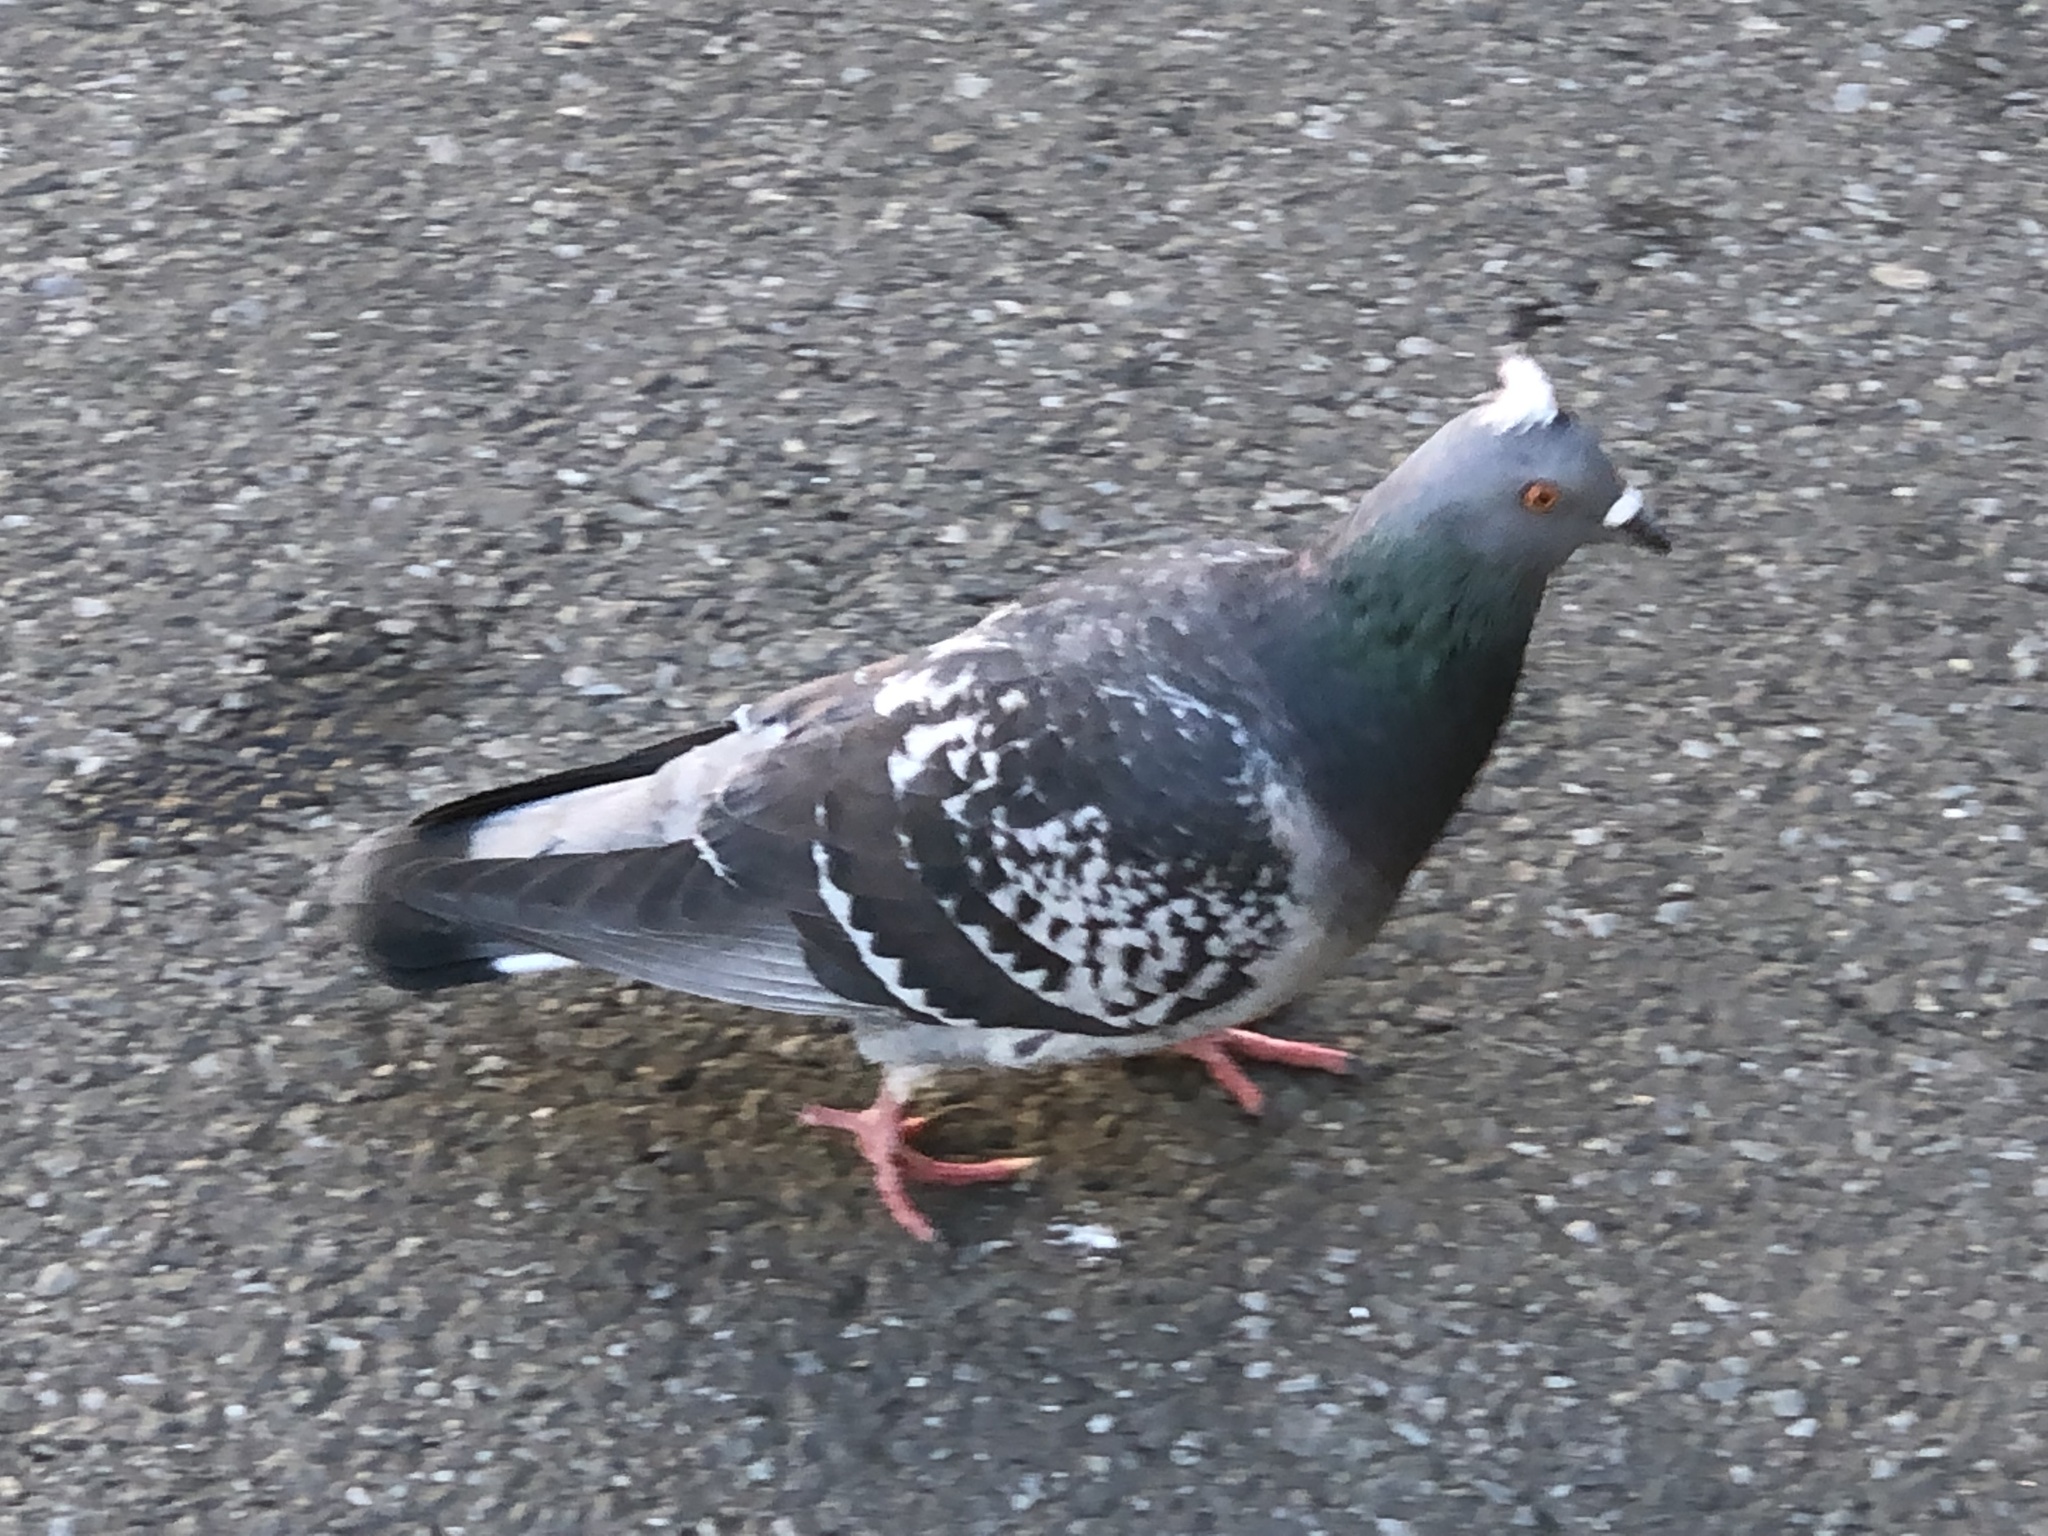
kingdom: Animalia
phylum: Chordata
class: Aves
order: Columbiformes
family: Columbidae
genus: Columba
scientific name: Columba livia
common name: Rock pigeon
